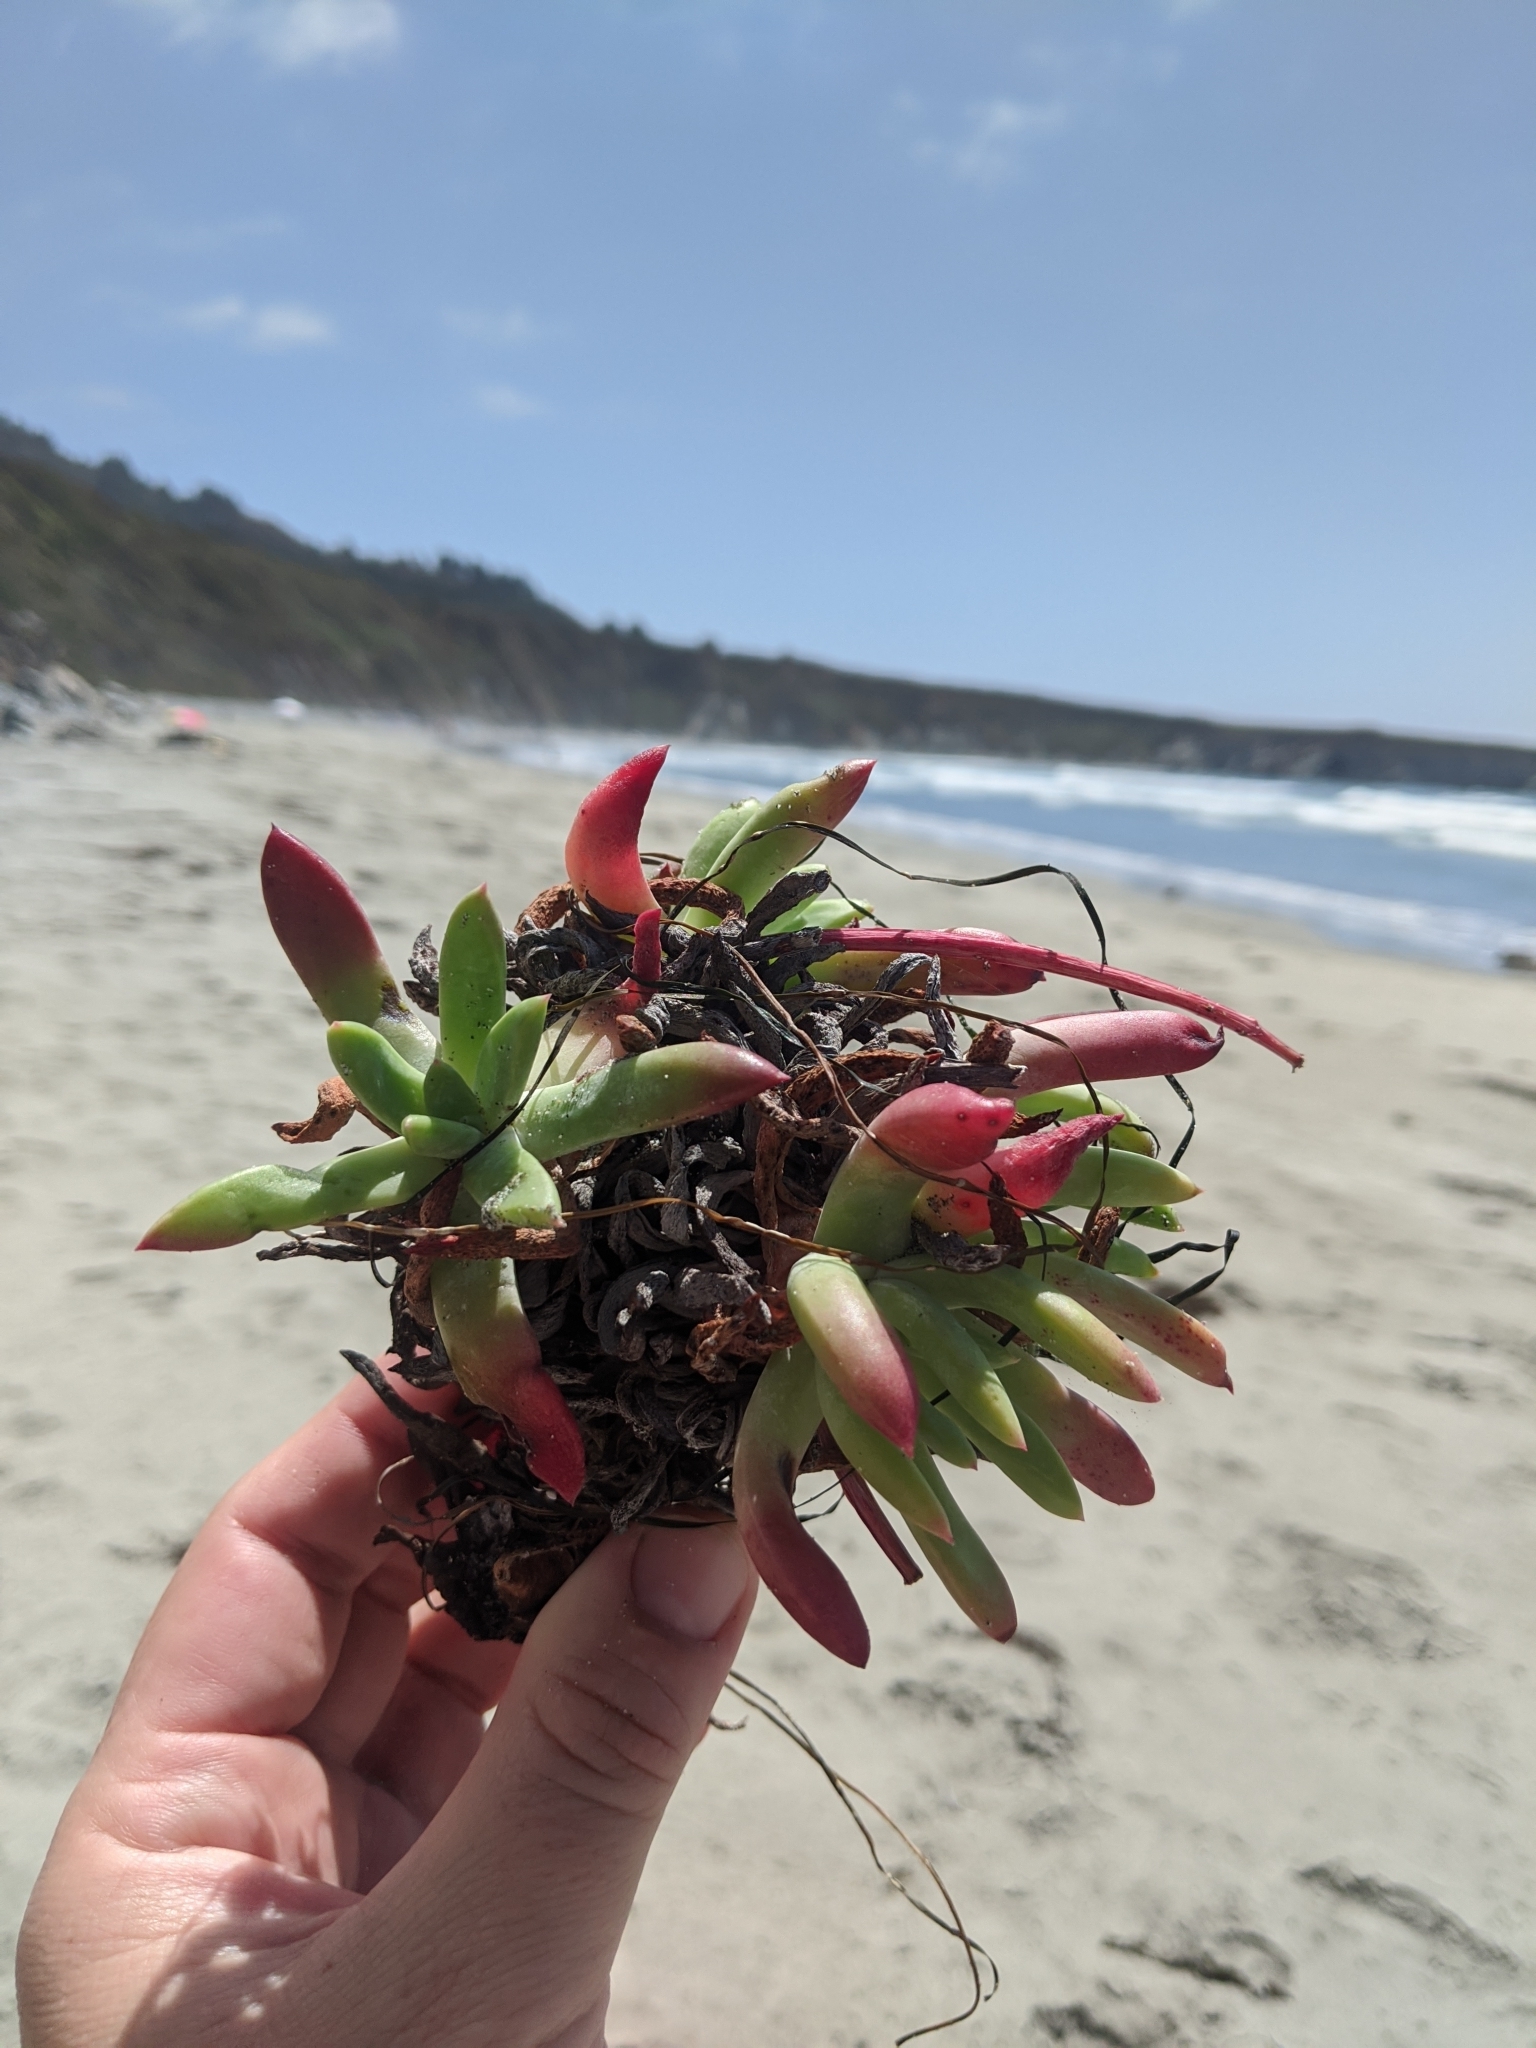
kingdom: Plantae
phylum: Tracheophyta
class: Magnoliopsida
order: Saxifragales
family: Crassulaceae
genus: Dudleya
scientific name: Dudleya caespitosa
